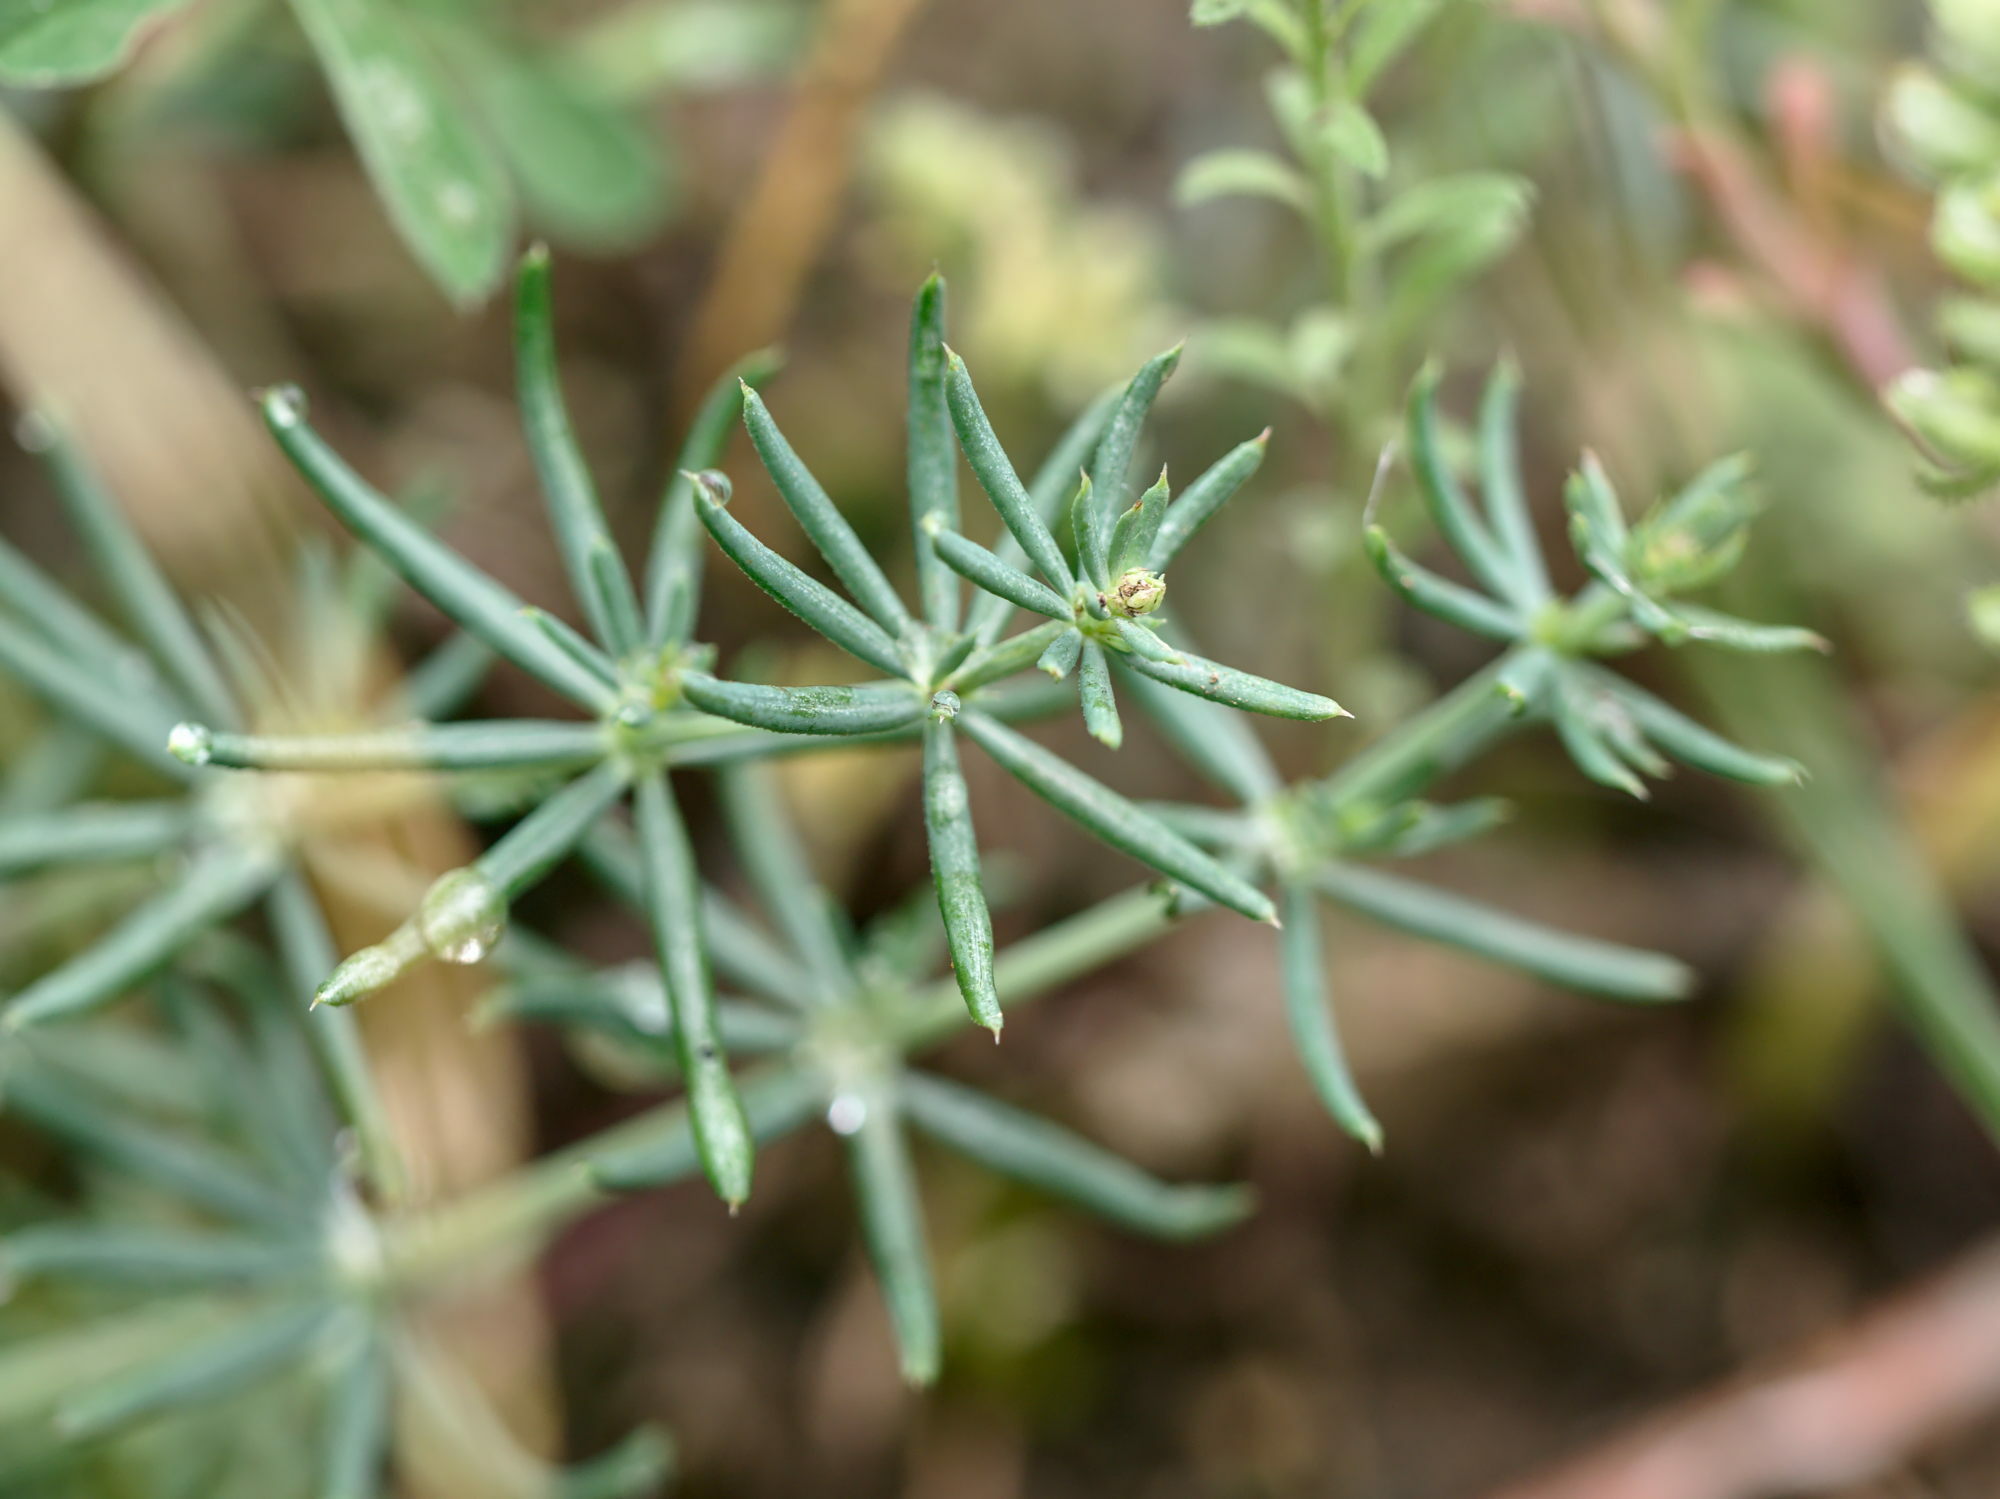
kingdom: Plantae
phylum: Tracheophyta
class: Magnoliopsida
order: Gentianales
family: Rubiaceae
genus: Galium
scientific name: Galium glaucum
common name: Waxy bedstraw
